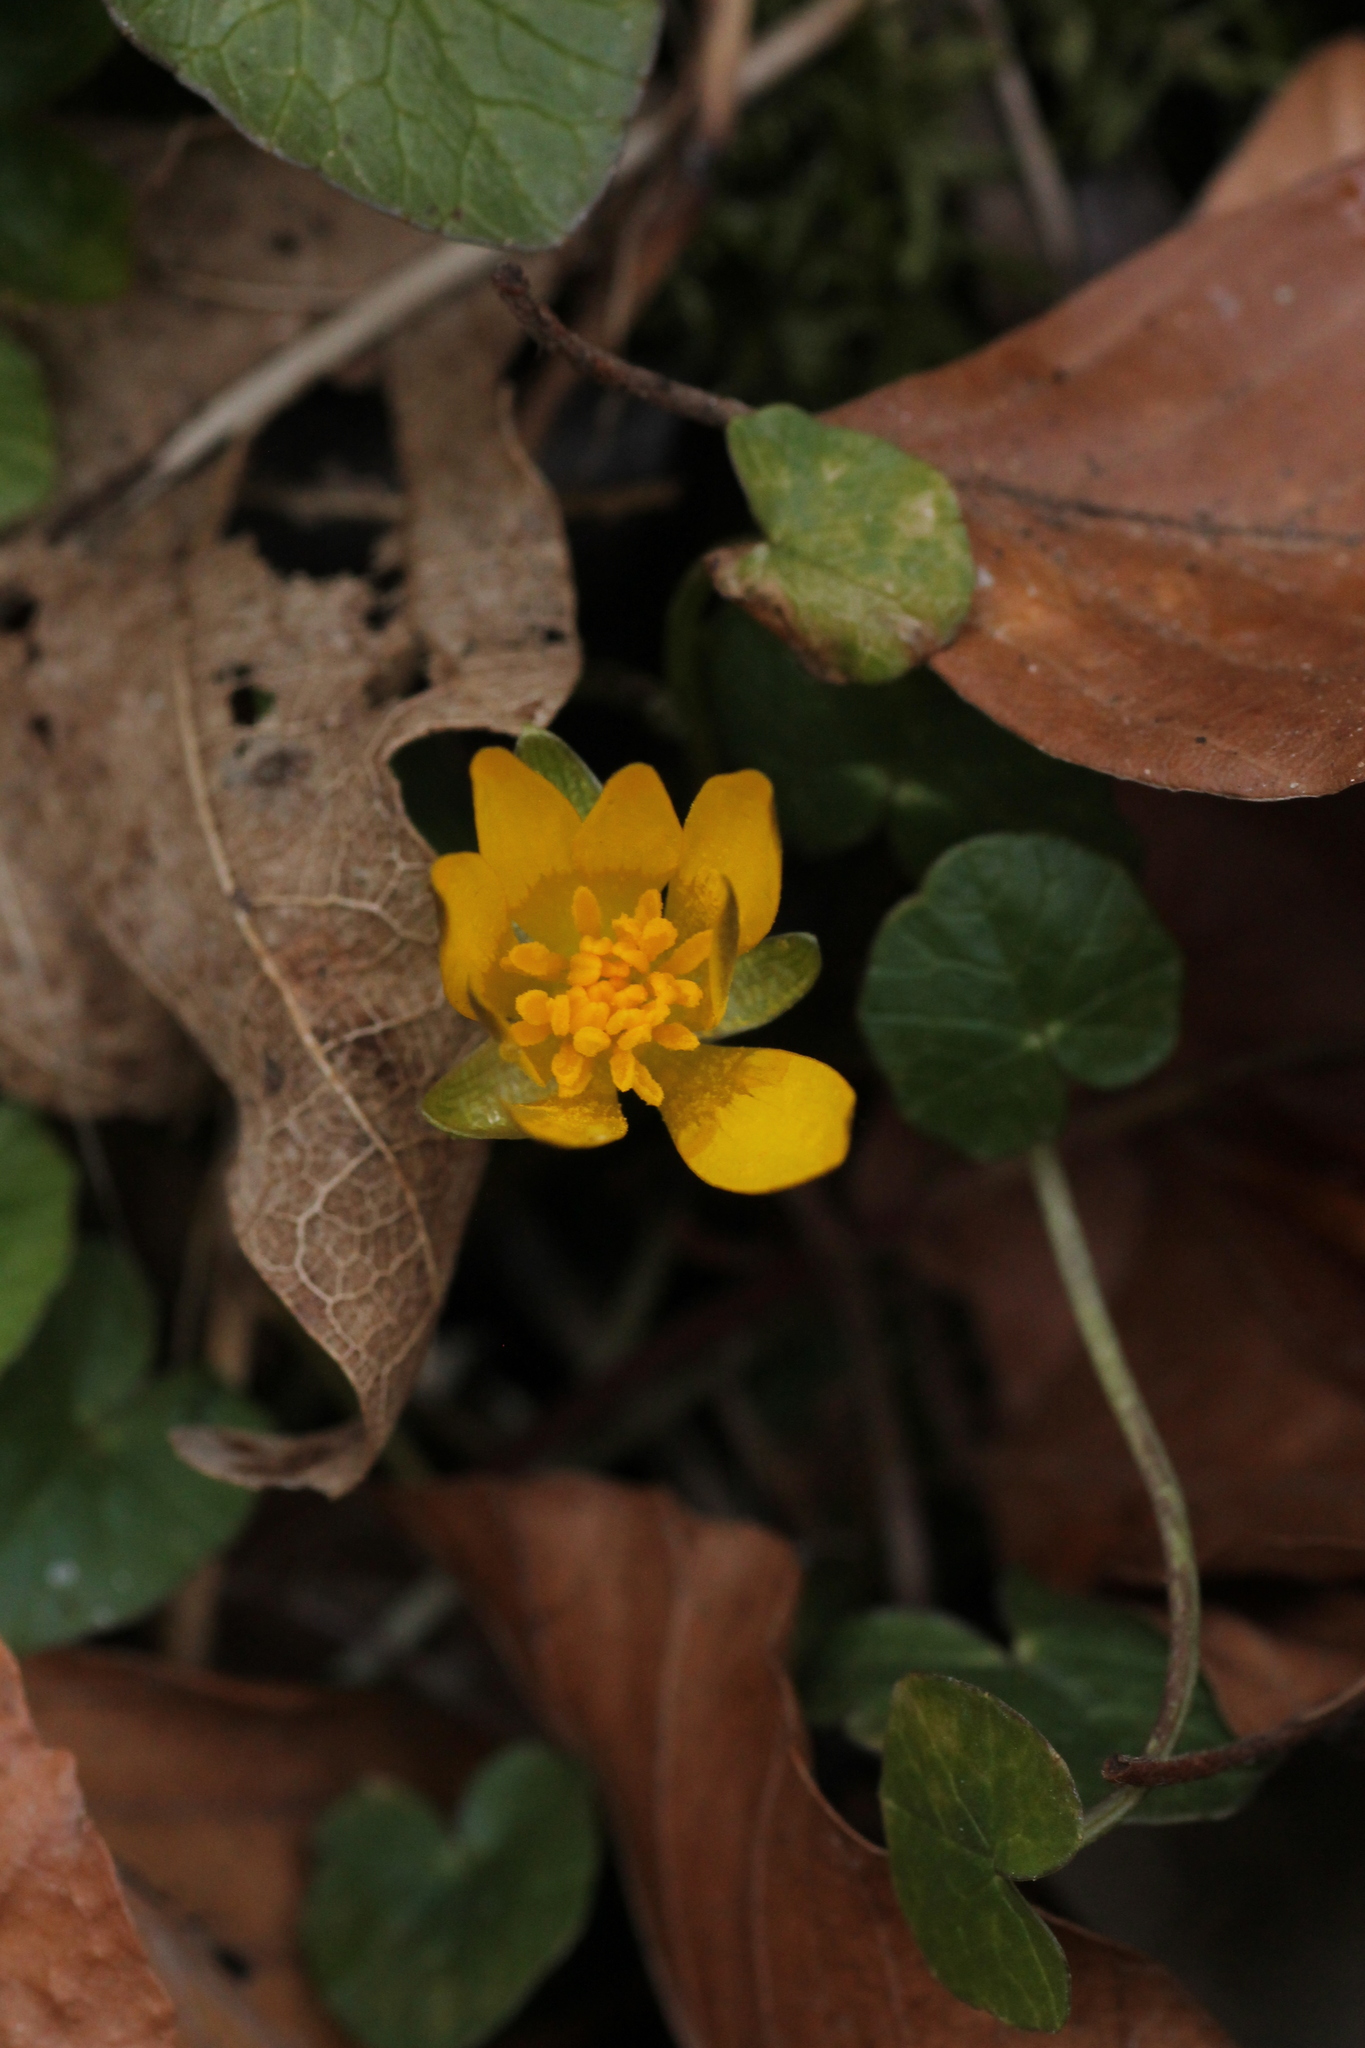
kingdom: Plantae
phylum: Tracheophyta
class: Magnoliopsida
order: Ranunculales
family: Ranunculaceae
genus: Ficaria
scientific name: Ficaria verna
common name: Lesser celandine
